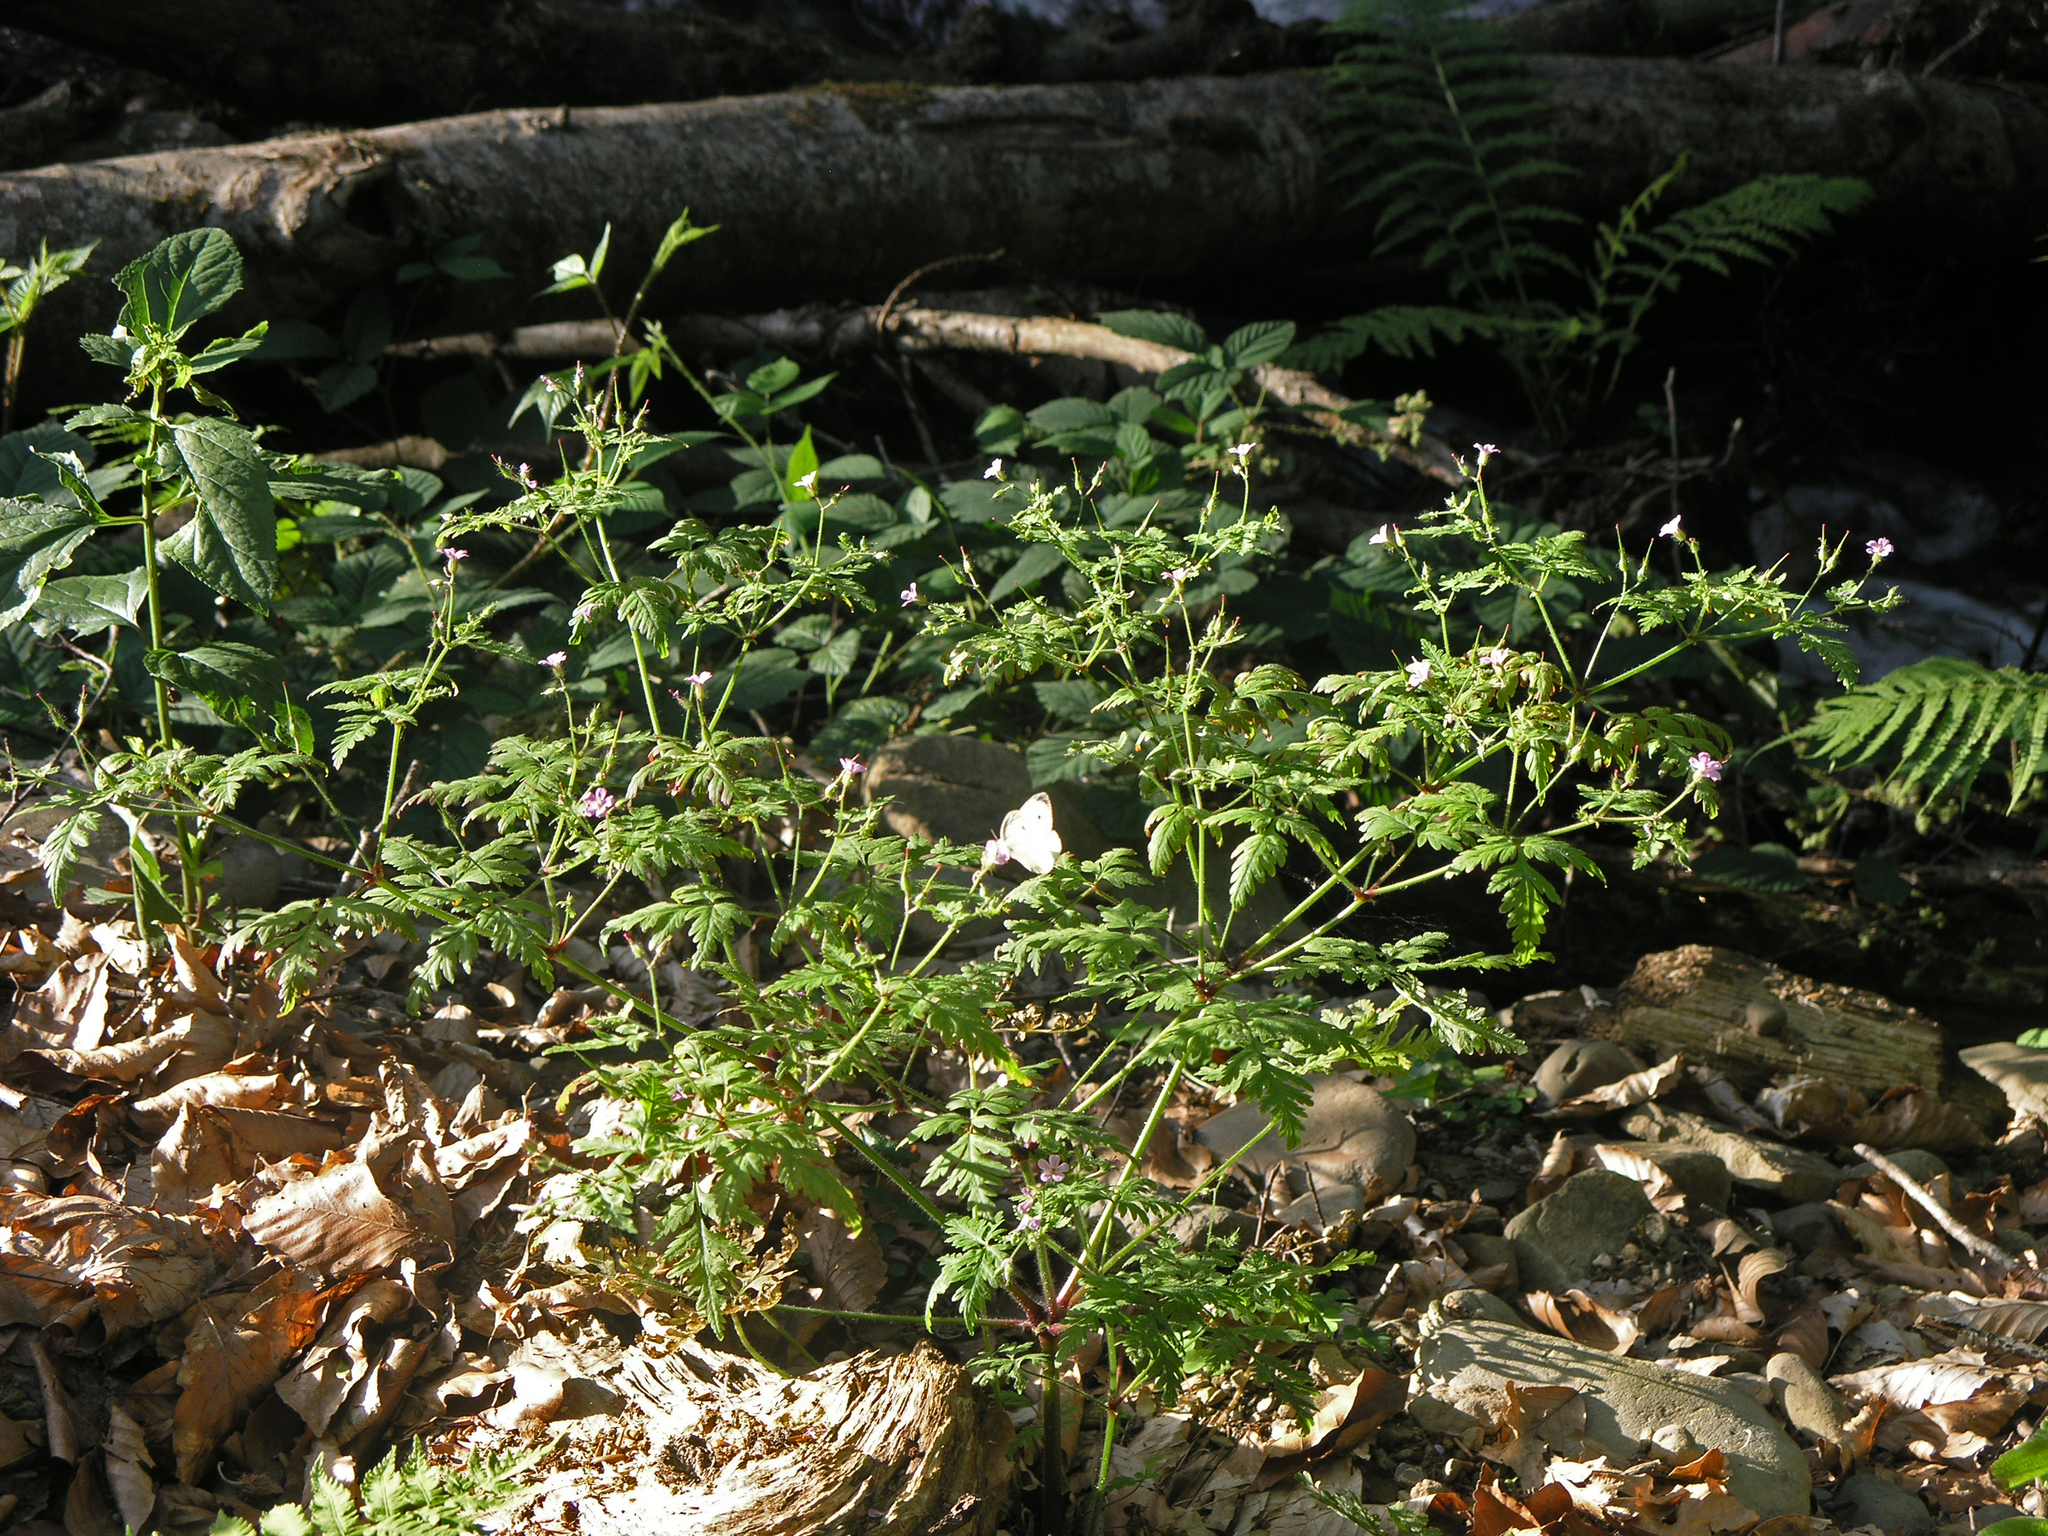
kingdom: Plantae
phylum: Tracheophyta
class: Magnoliopsida
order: Geraniales
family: Geraniaceae
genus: Geranium
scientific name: Geranium robertianum
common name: Herb-robert
